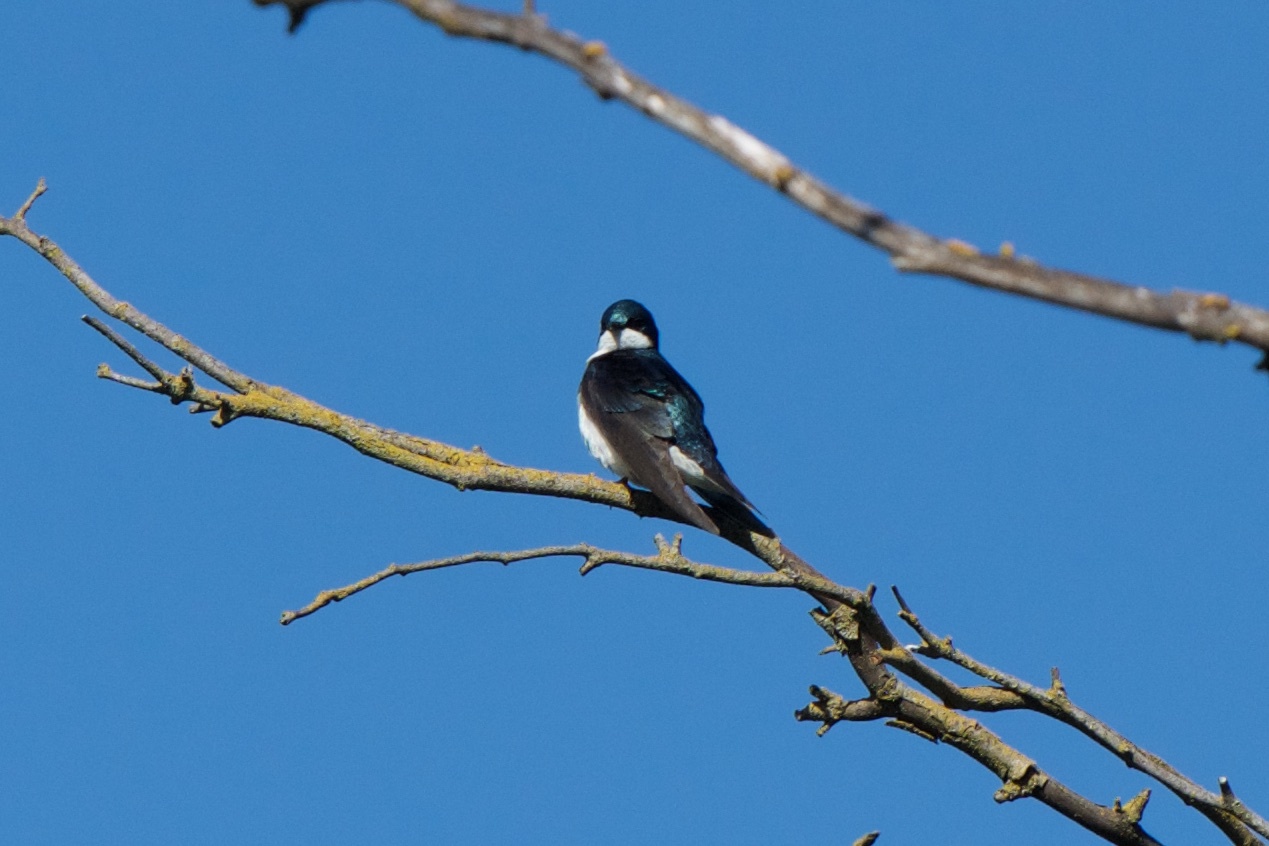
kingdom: Animalia
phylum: Chordata
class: Aves
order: Passeriformes
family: Hirundinidae
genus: Tachycineta
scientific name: Tachycineta bicolor
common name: Tree swallow
